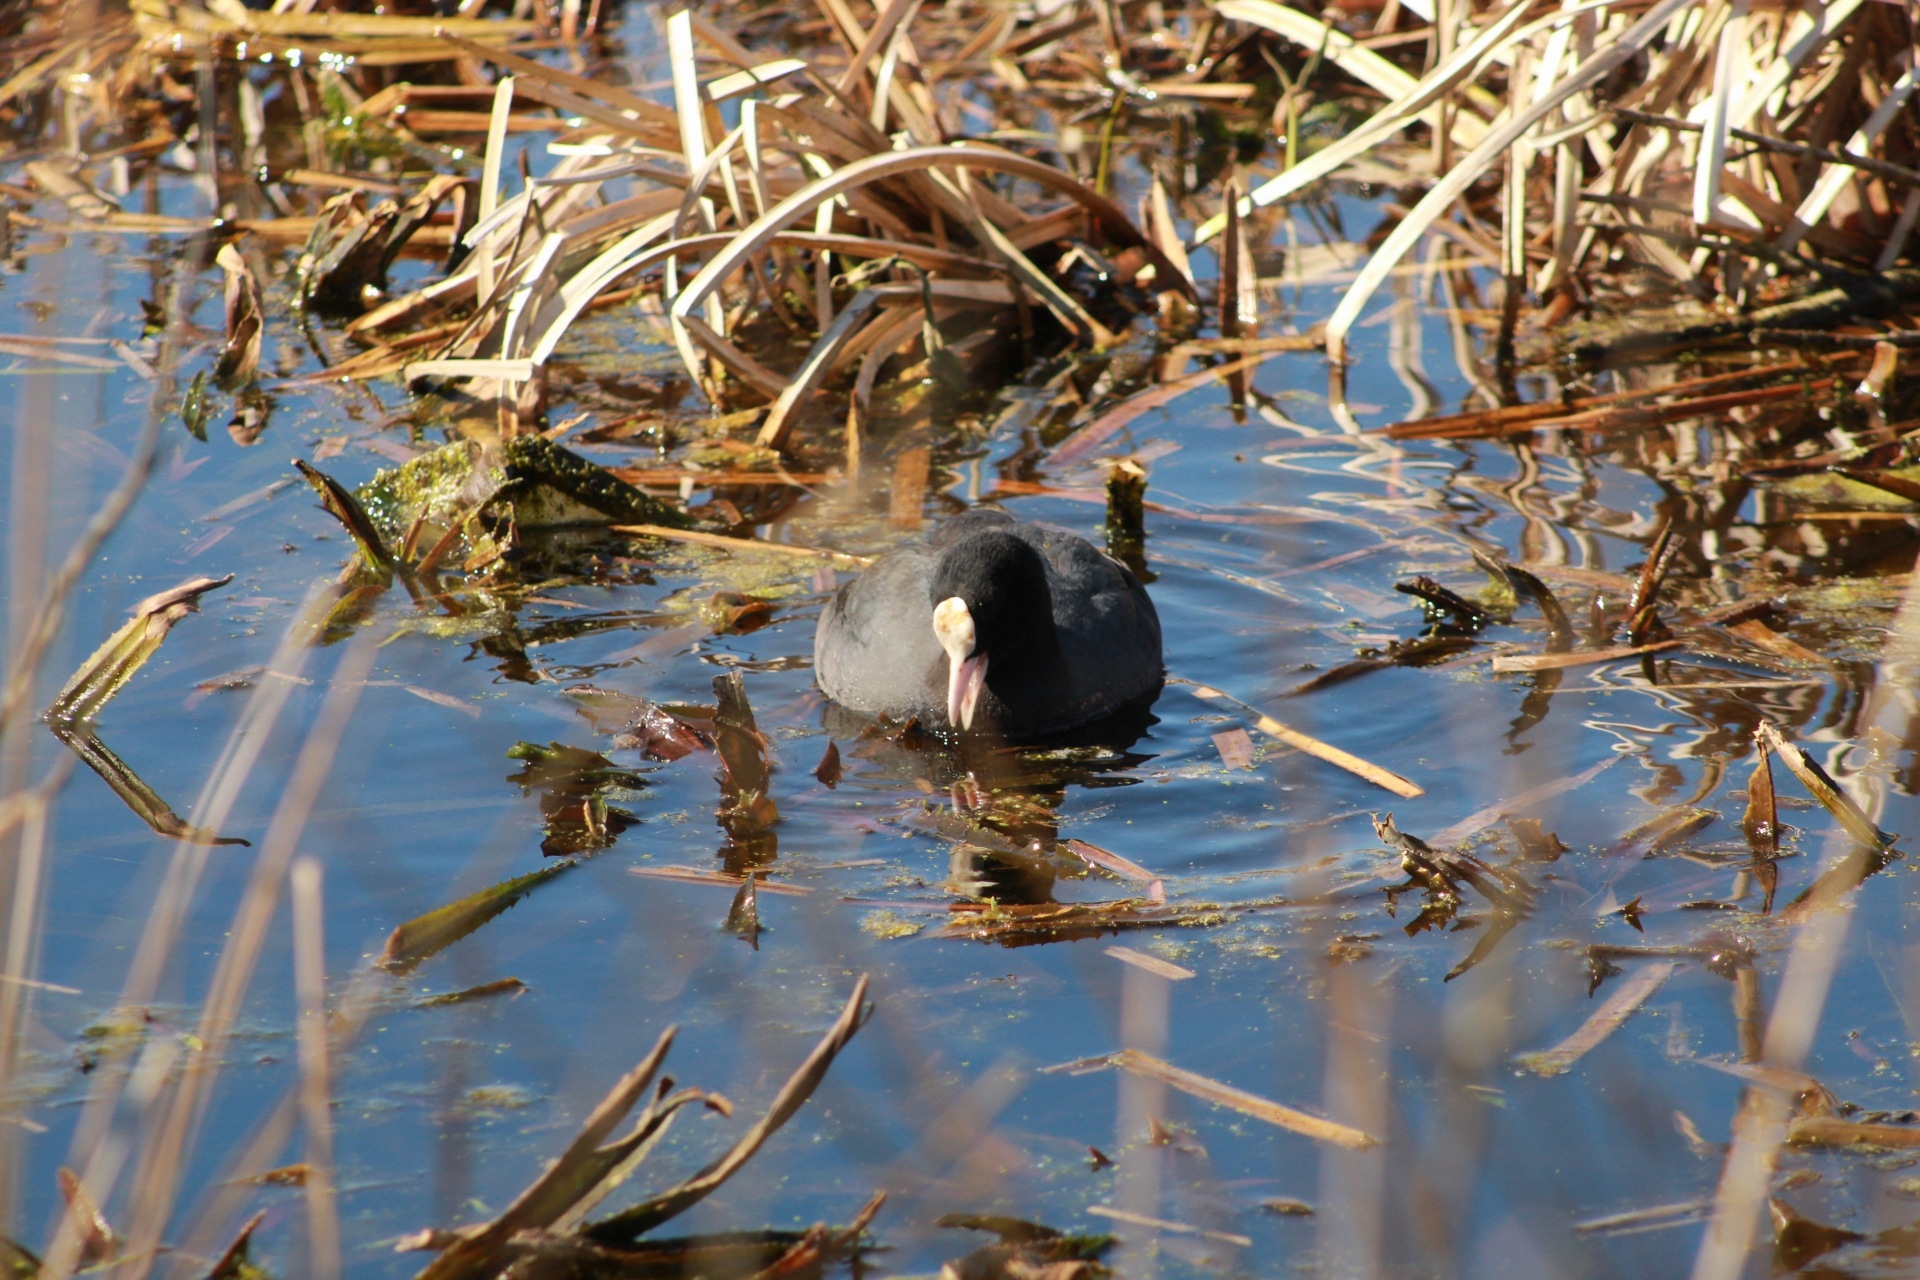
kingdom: Animalia
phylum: Chordata
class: Aves
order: Gruiformes
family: Rallidae
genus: Fulica
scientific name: Fulica atra
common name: Eurasian coot
